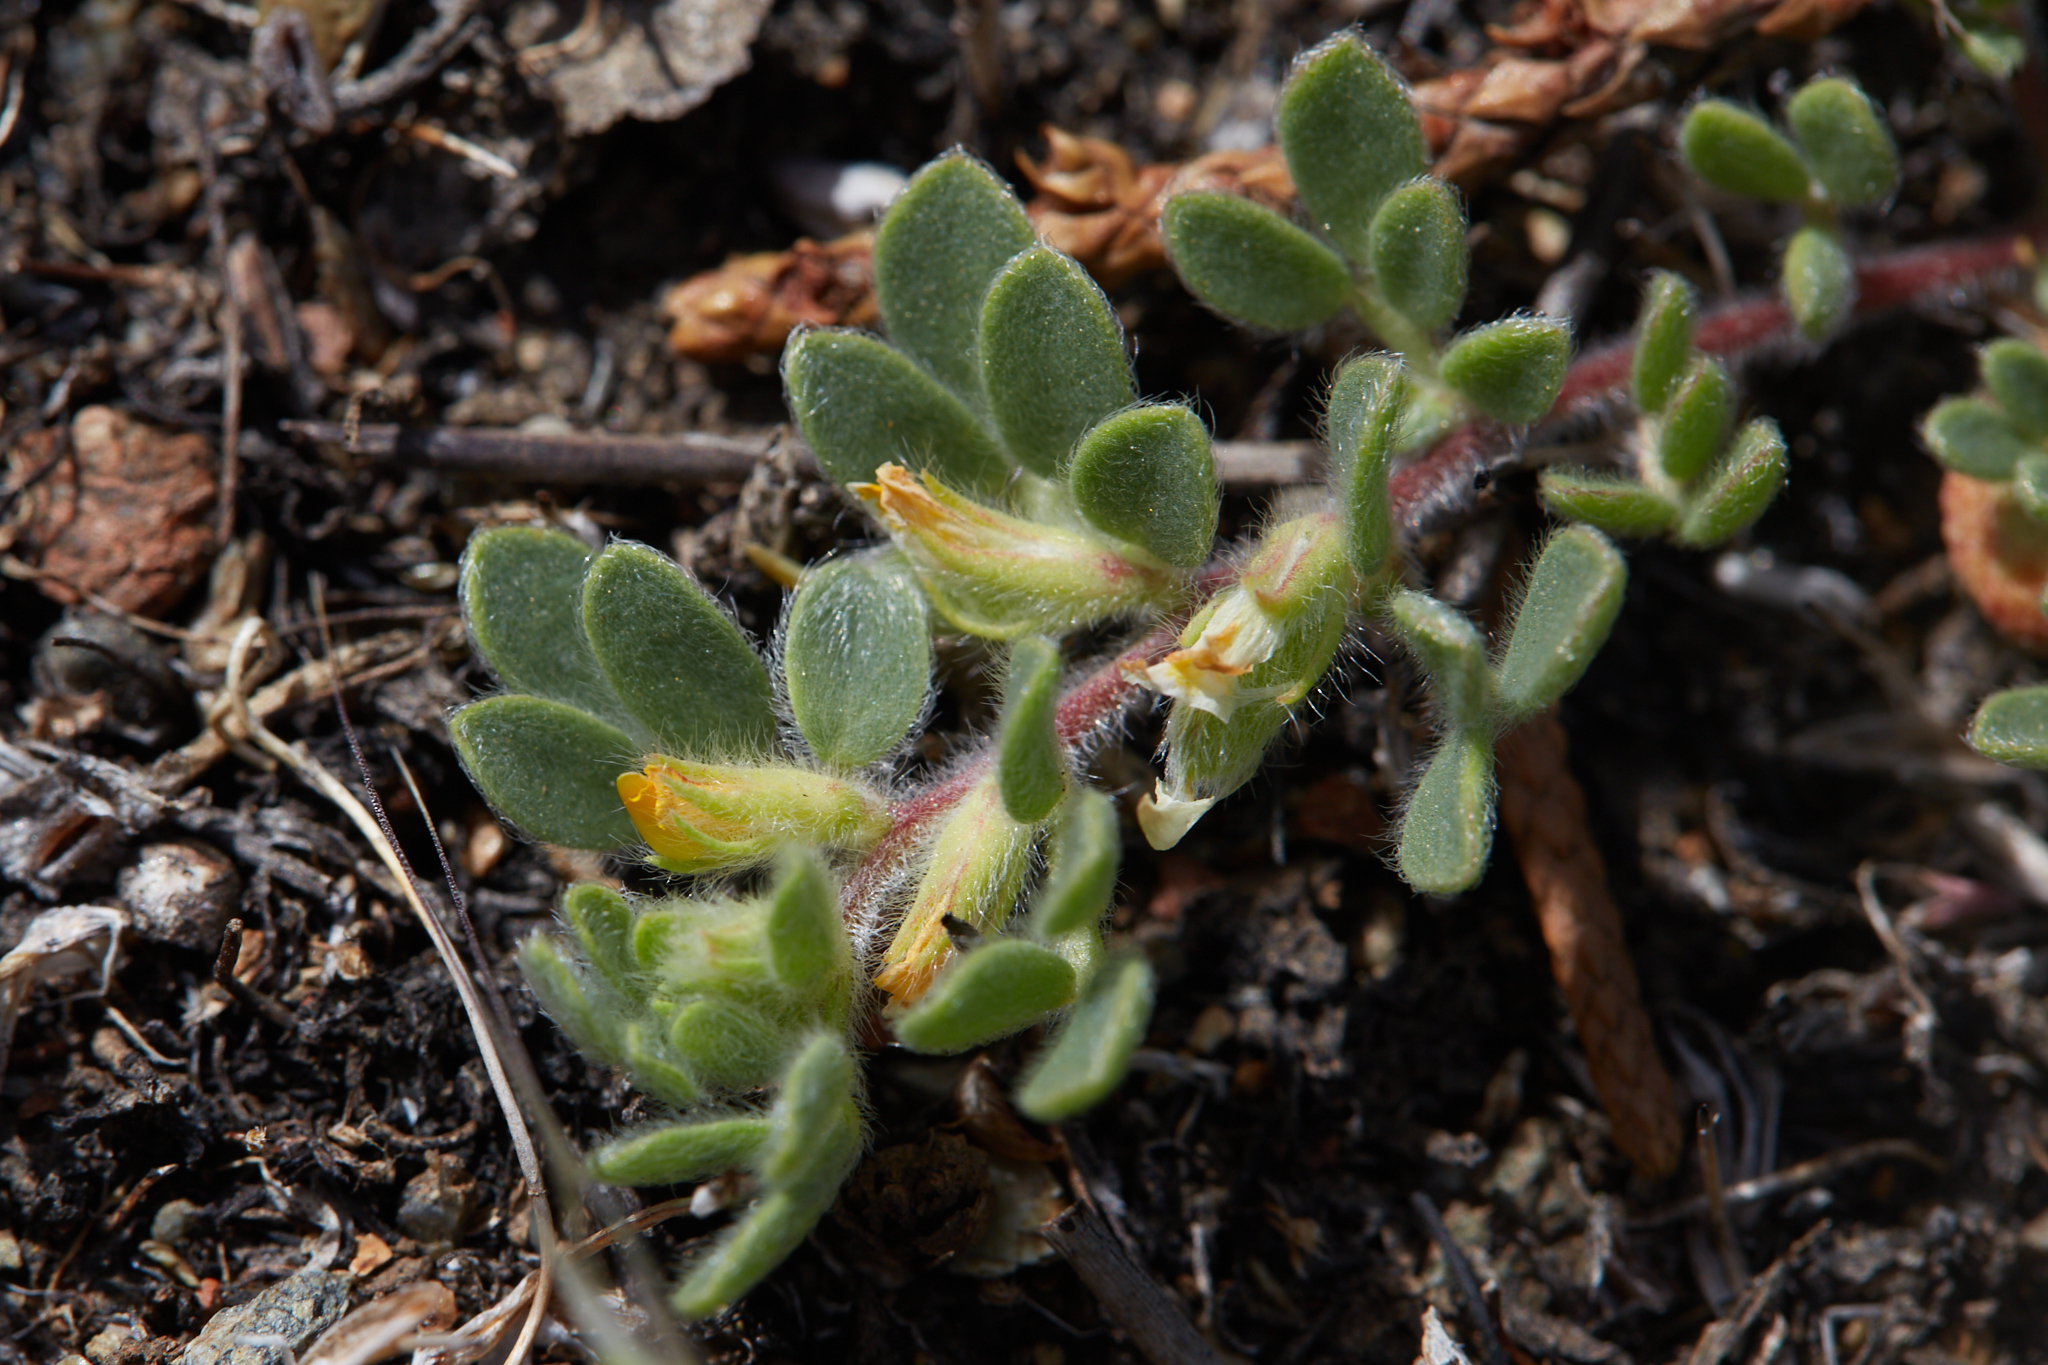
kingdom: Plantae
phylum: Tracheophyta
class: Magnoliopsida
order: Fabales
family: Fabaceae
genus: Acmispon
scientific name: Acmispon brachycarpus
